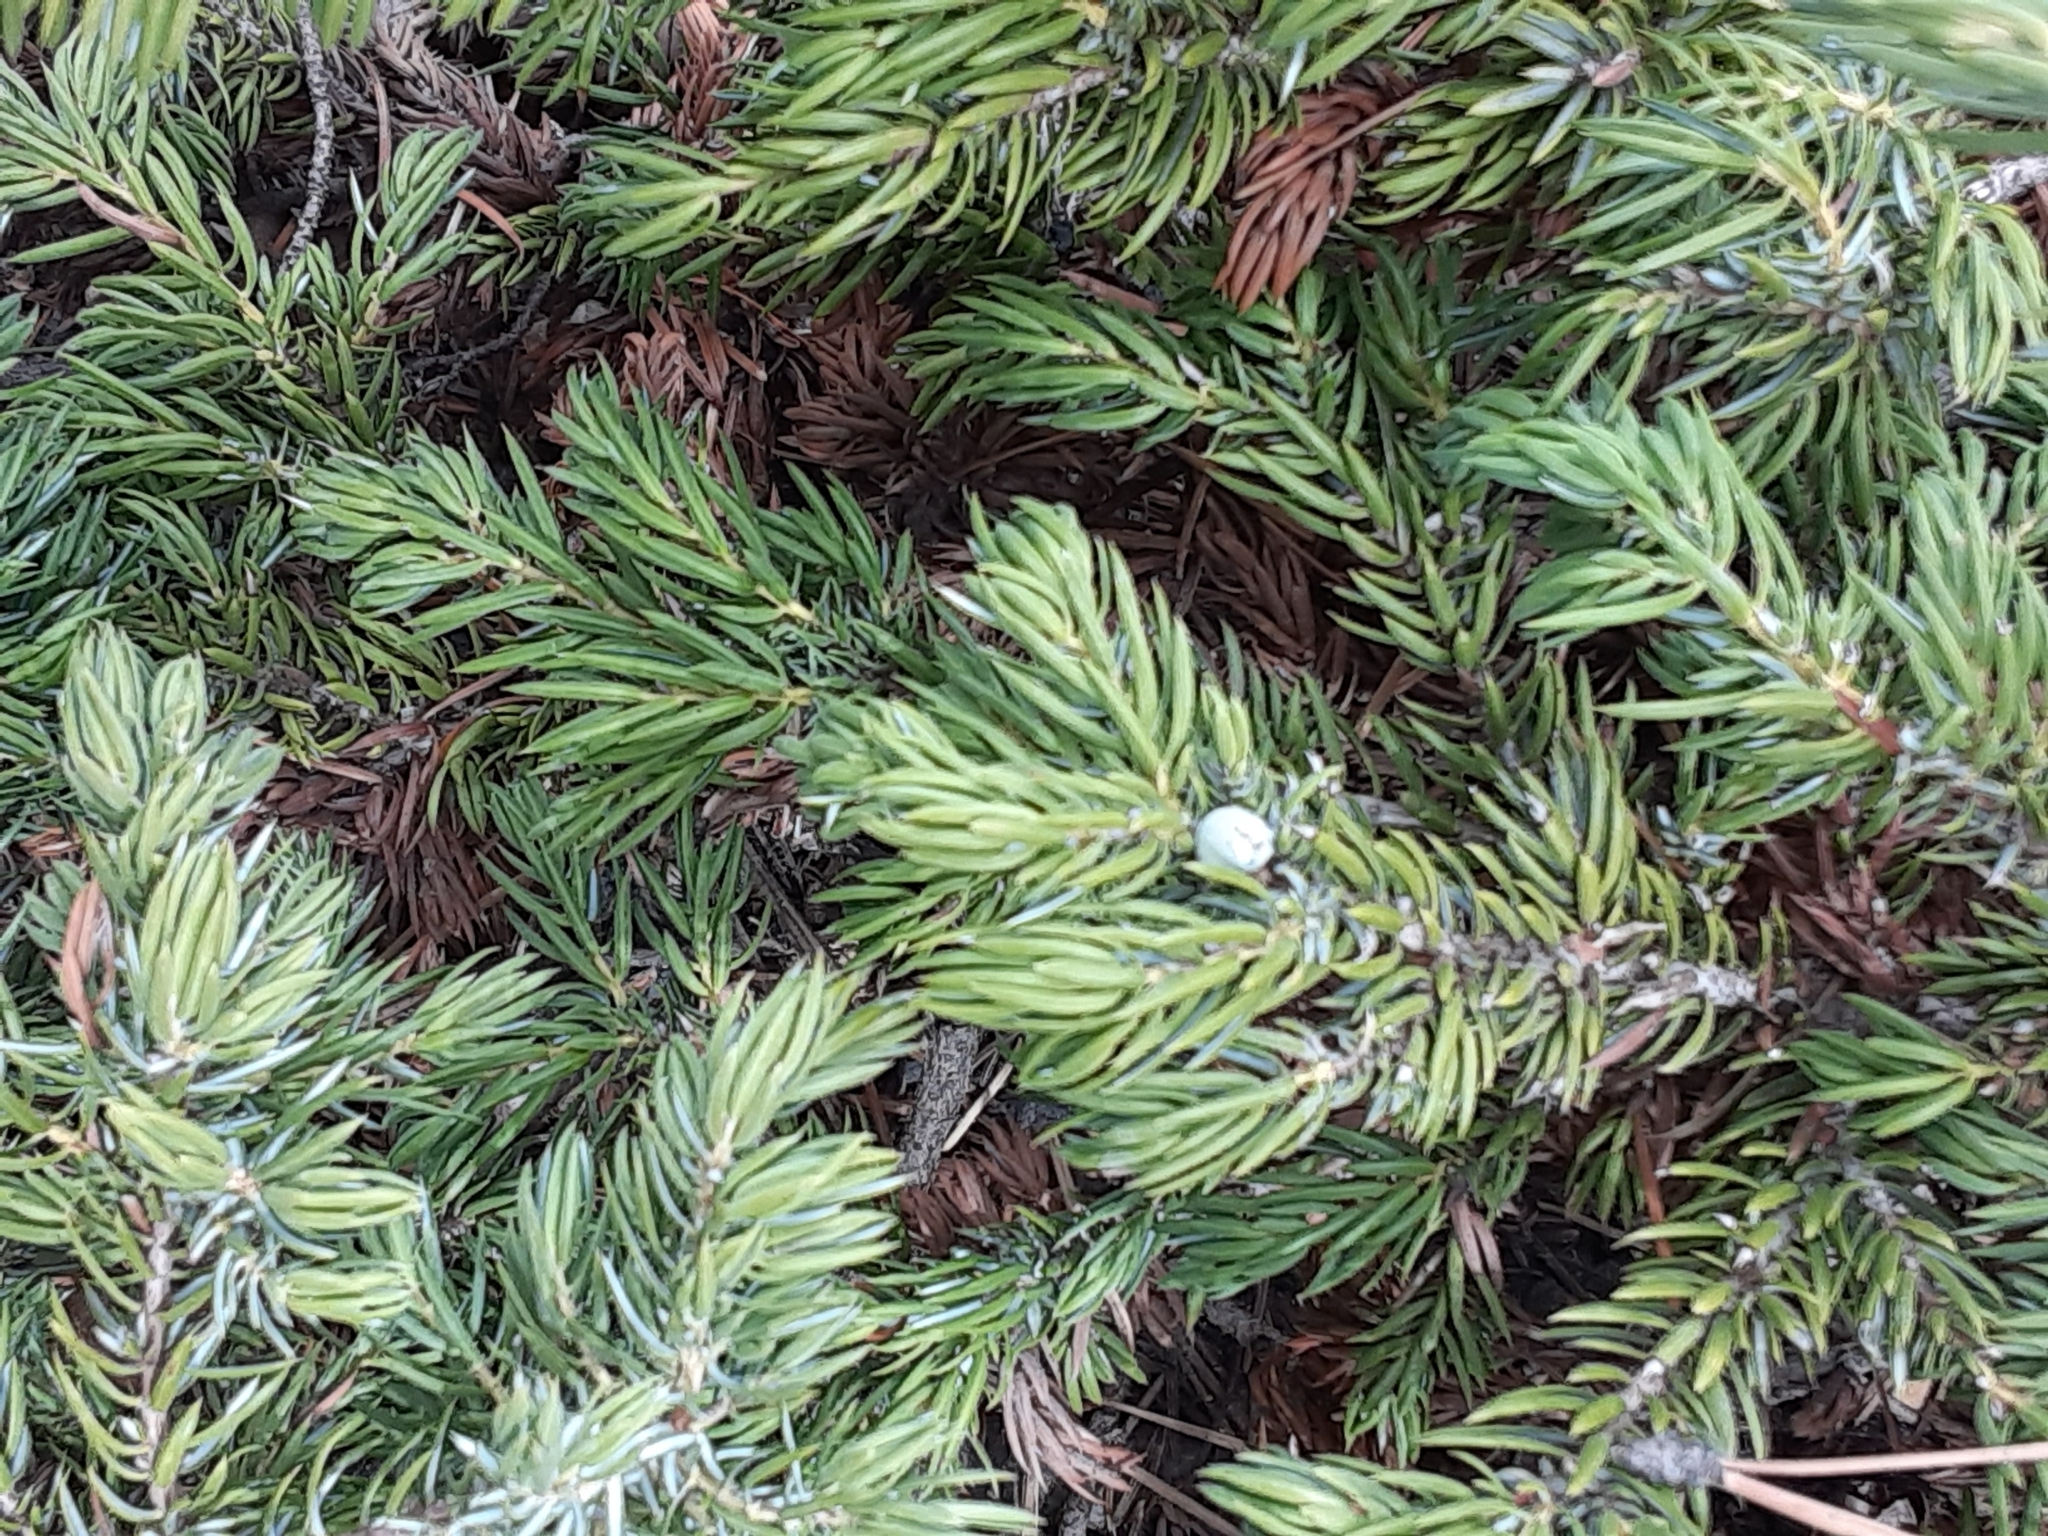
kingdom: Plantae
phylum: Tracheophyta
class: Pinopsida
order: Pinales
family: Cupressaceae
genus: Juniperus
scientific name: Juniperus communis
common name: Common juniper
